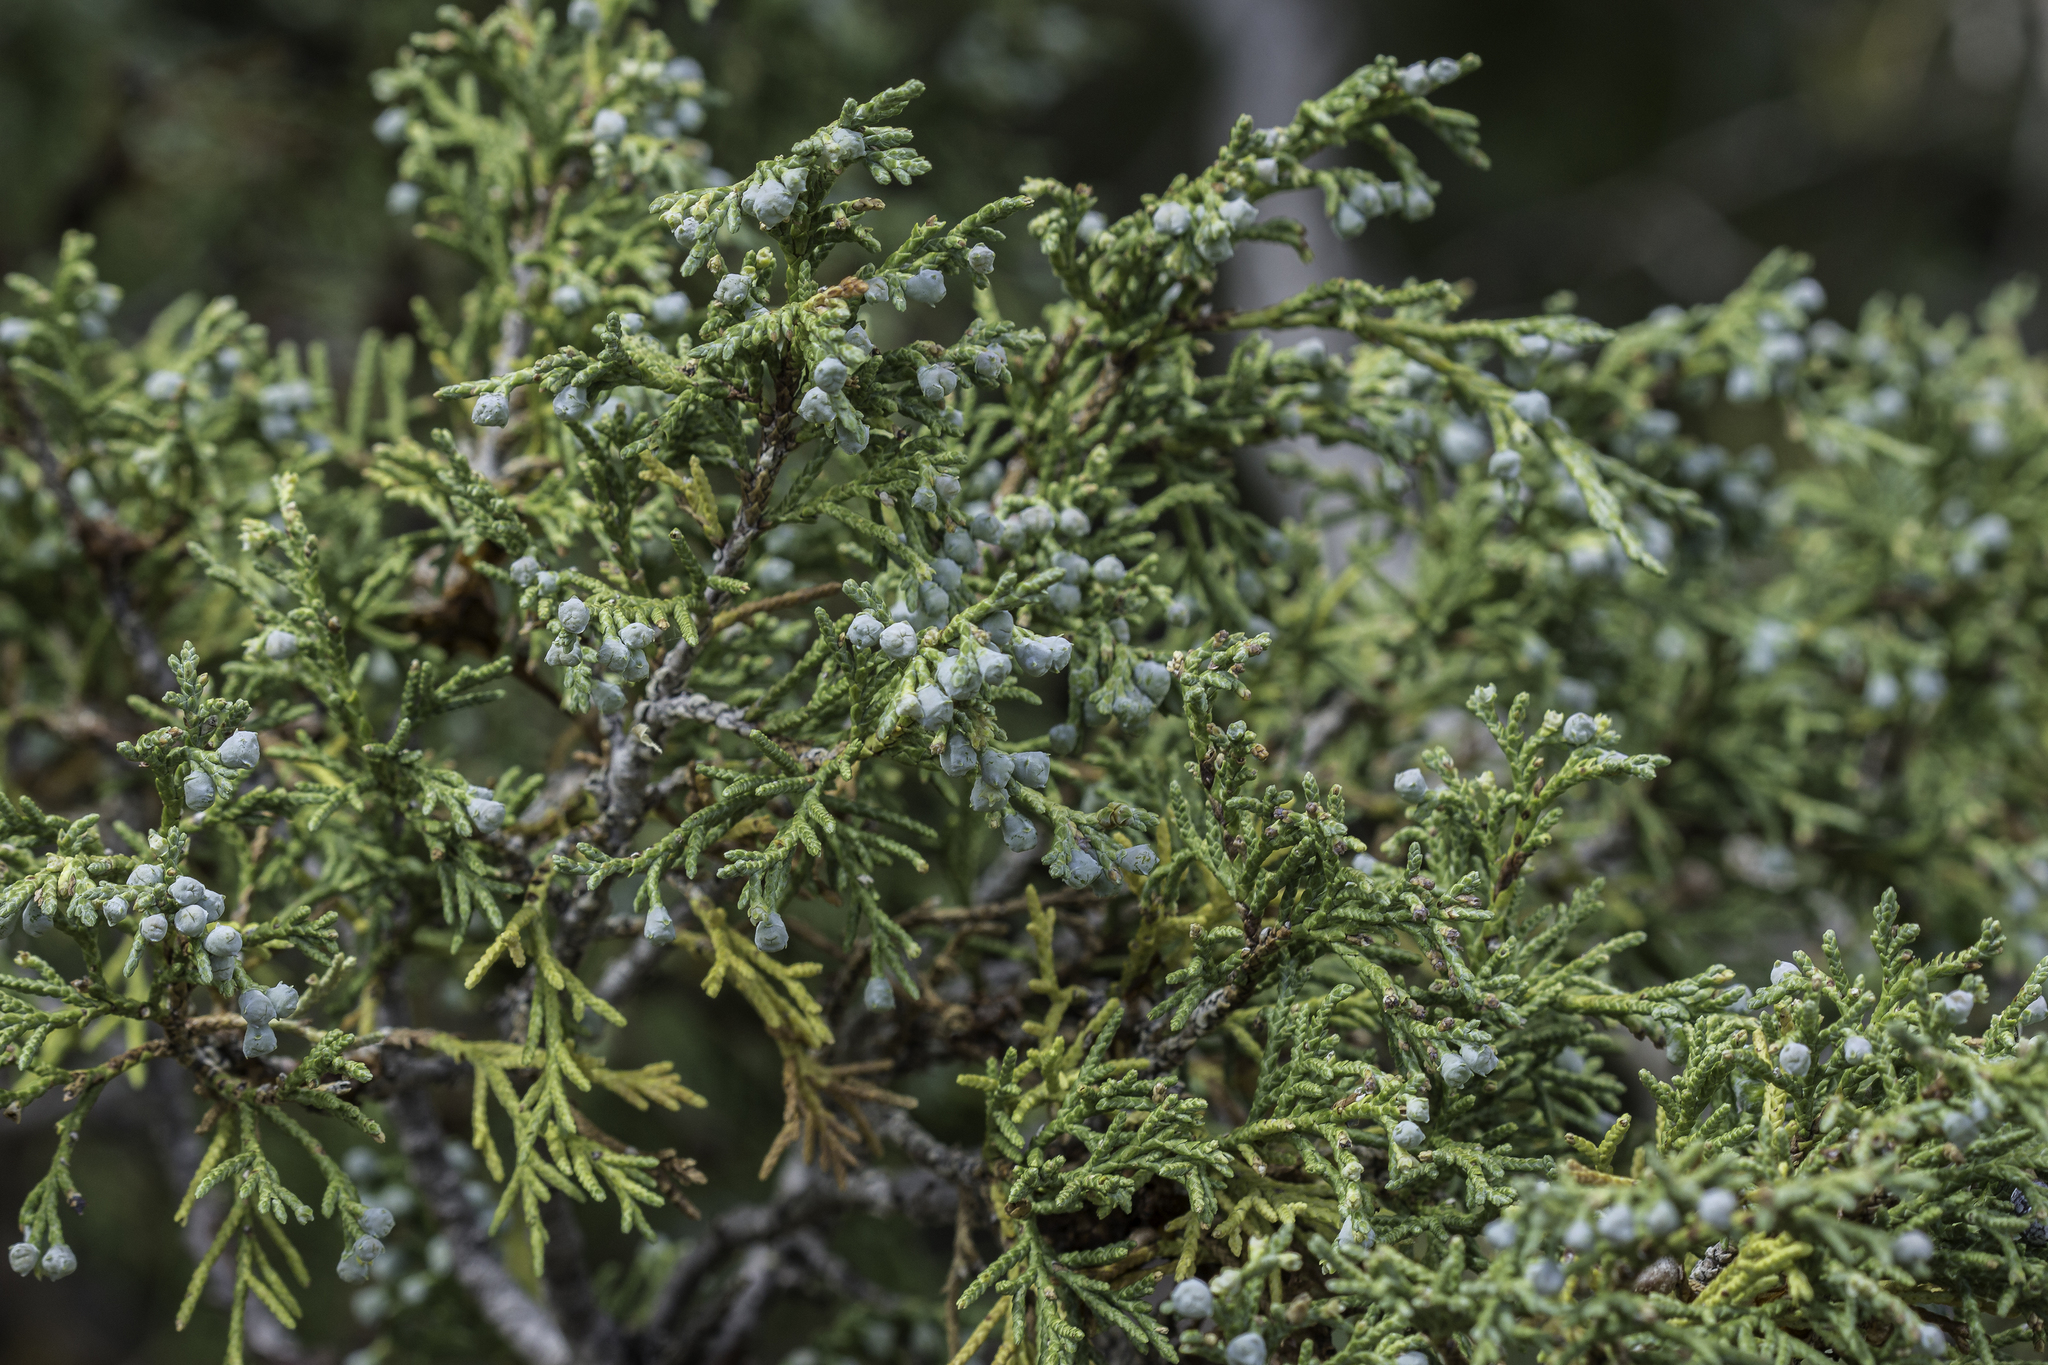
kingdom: Plantae
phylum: Tracheophyta
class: Pinopsida
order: Pinales
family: Cupressaceae
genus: Juniperus
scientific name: Juniperus osteosperma
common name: Utah juniper
